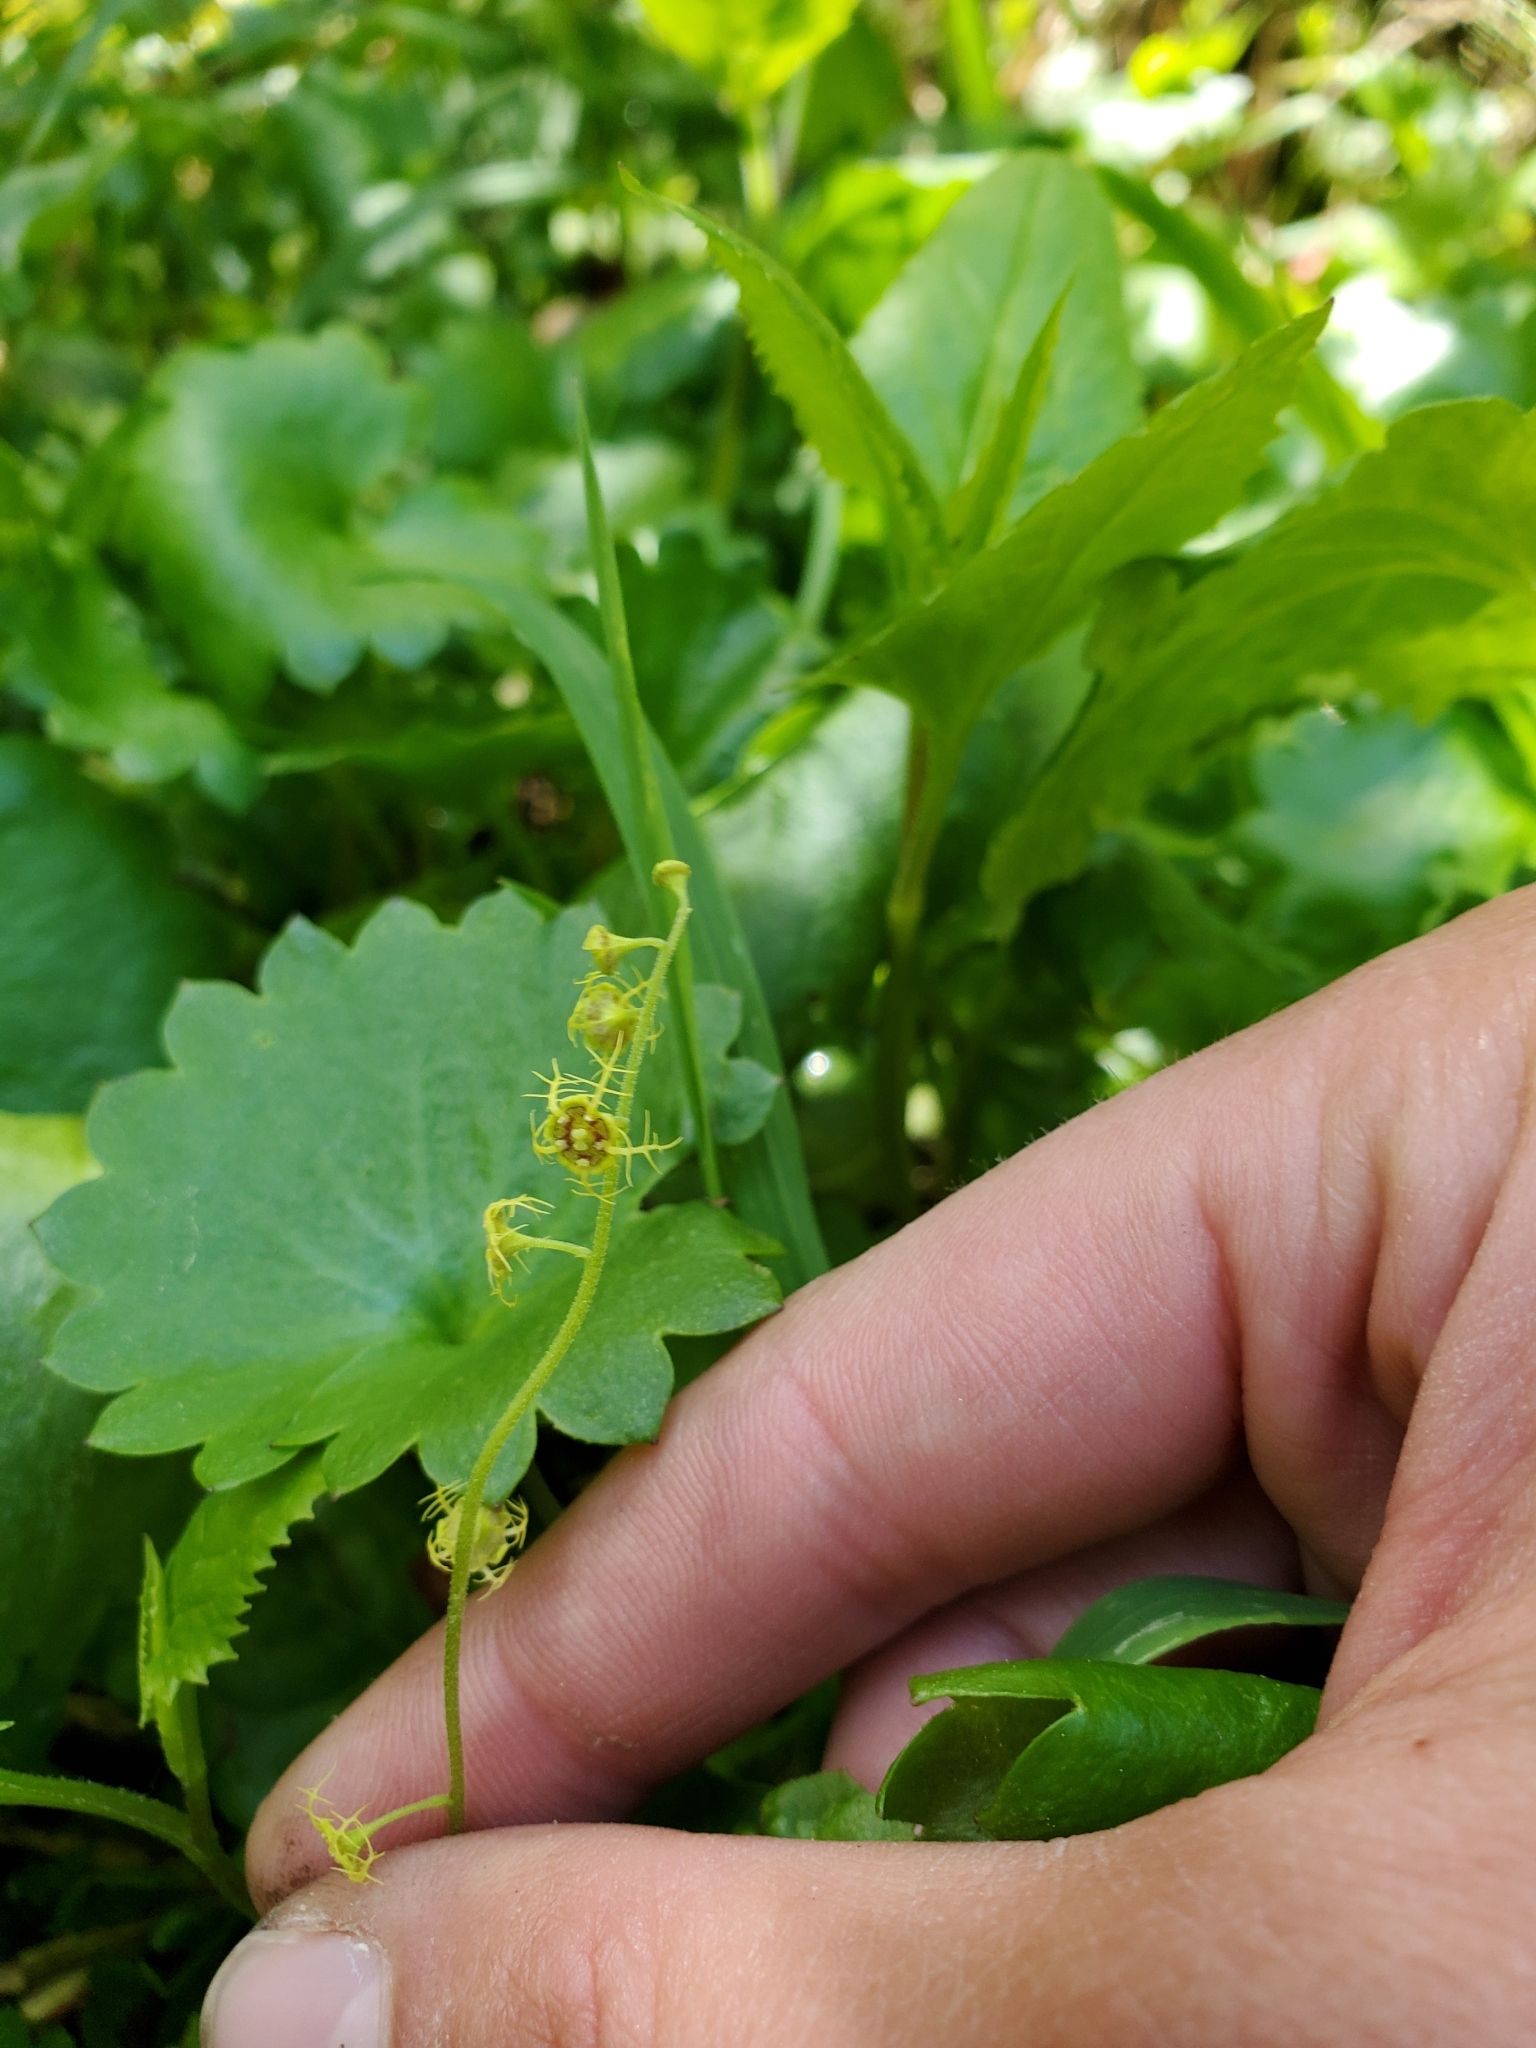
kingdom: Plantae
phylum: Tracheophyta
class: Magnoliopsida
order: Saxifragales
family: Saxifragaceae
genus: Pectiantia
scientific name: Pectiantia pentandra
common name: Alpine bishop's-cap
